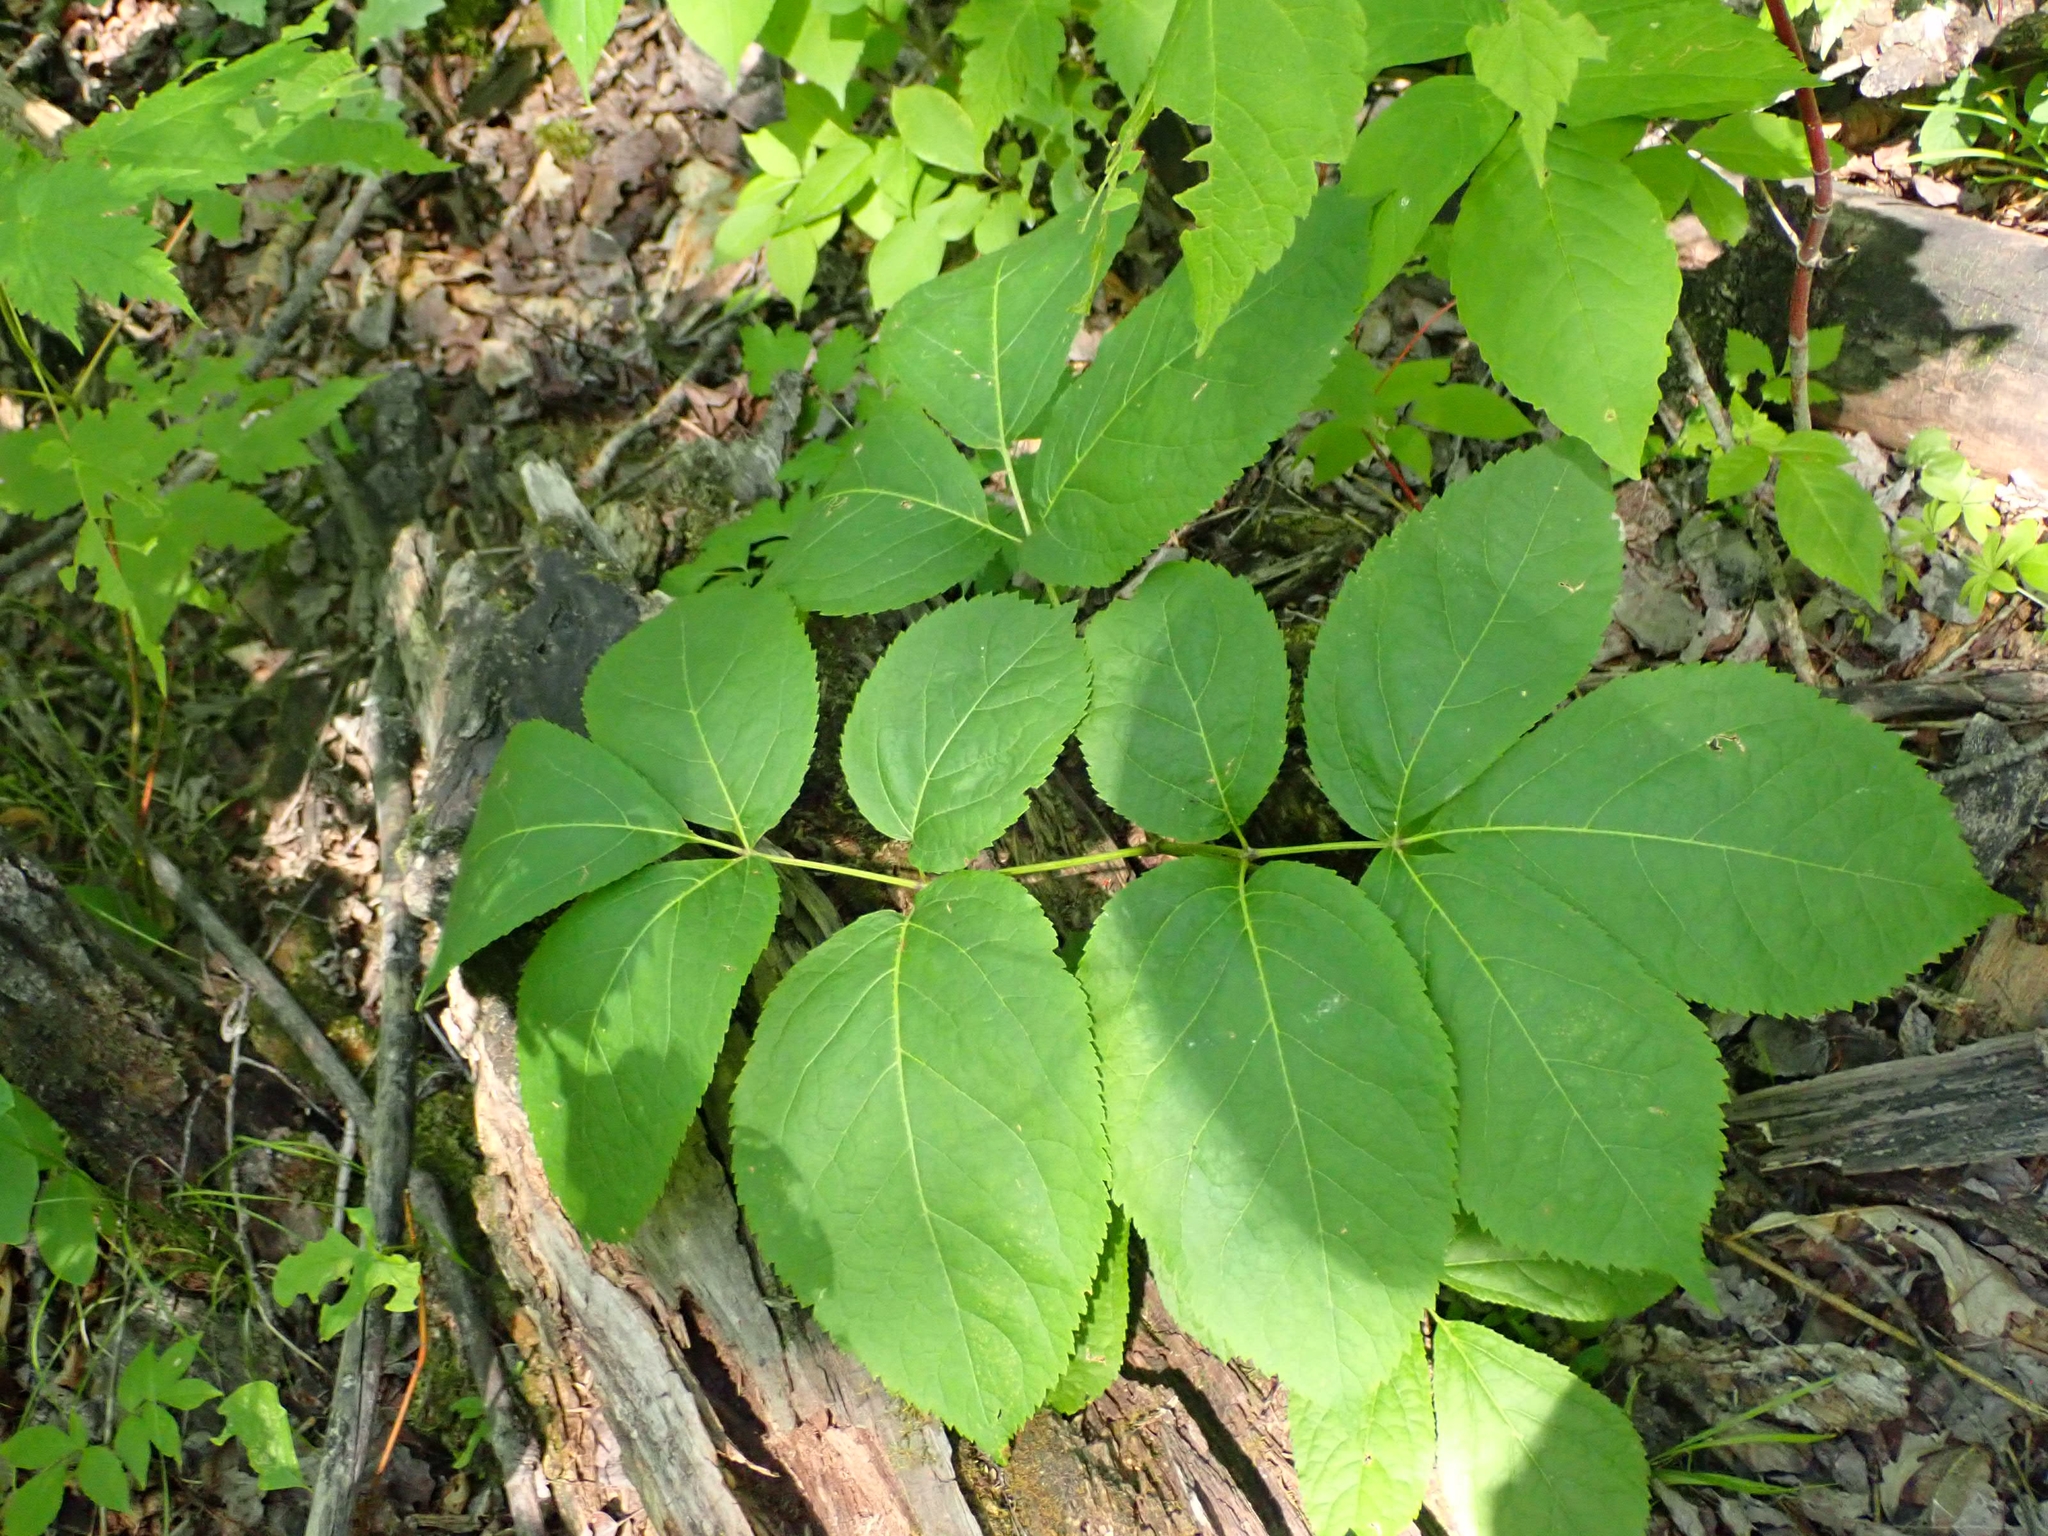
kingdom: Plantae
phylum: Tracheophyta
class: Magnoliopsida
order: Apiales
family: Araliaceae
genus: Aralia
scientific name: Aralia nudicaulis
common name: Wild sarsaparilla
